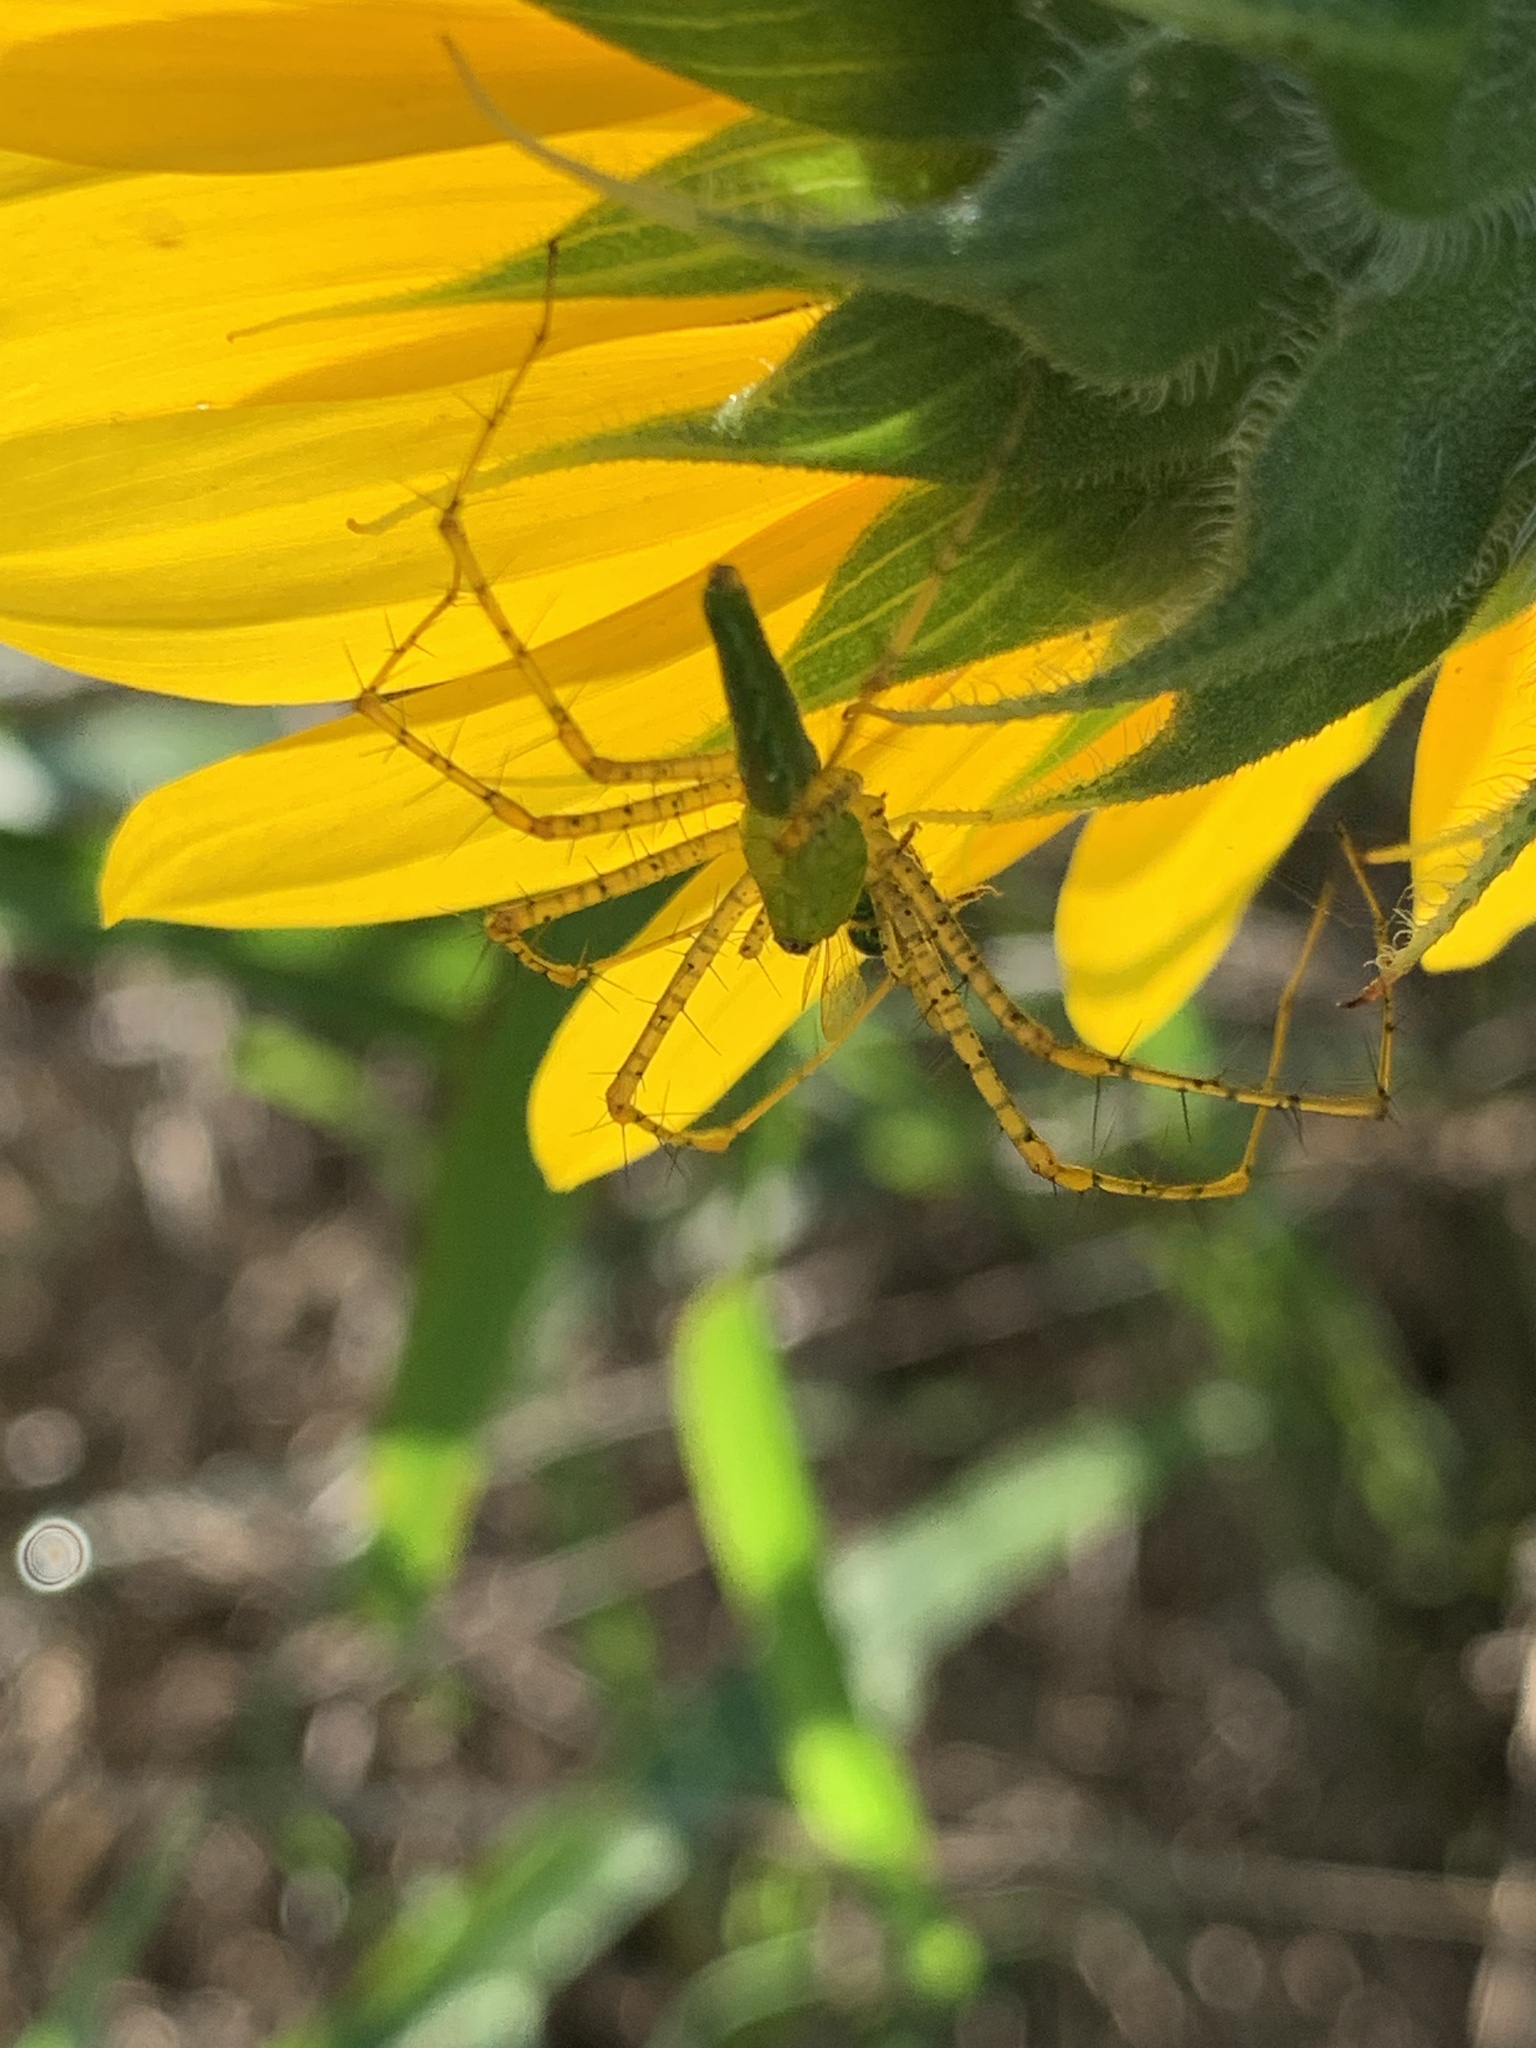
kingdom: Animalia
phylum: Arthropoda
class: Arachnida
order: Araneae
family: Oxyopidae
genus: Peucetia
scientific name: Peucetia viridans
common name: Lynx spiders
